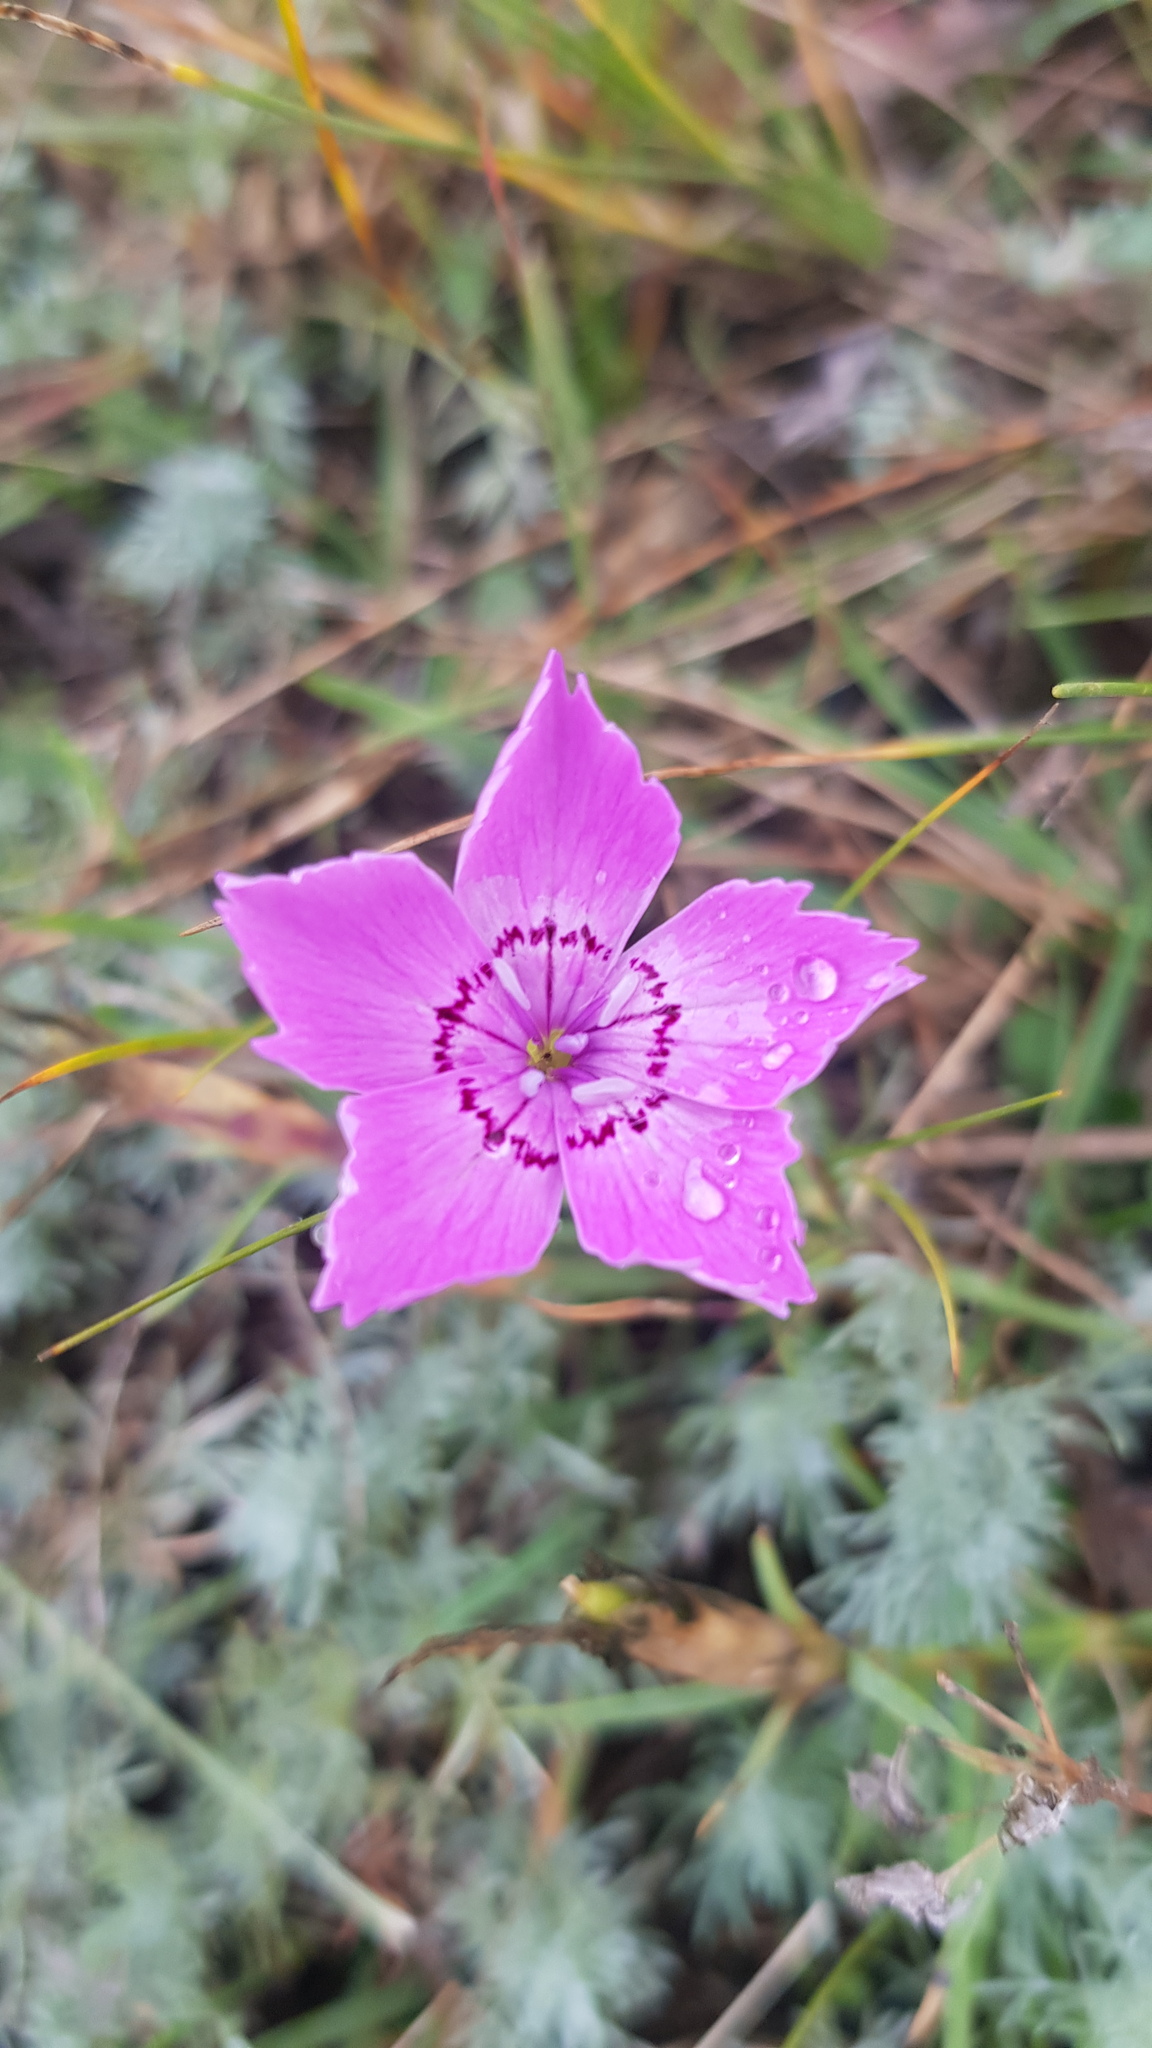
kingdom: Plantae
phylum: Tracheophyta
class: Magnoliopsida
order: Caryophyllales
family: Caryophyllaceae
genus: Dianthus
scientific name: Dianthus chinensis
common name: Rainbow pink
